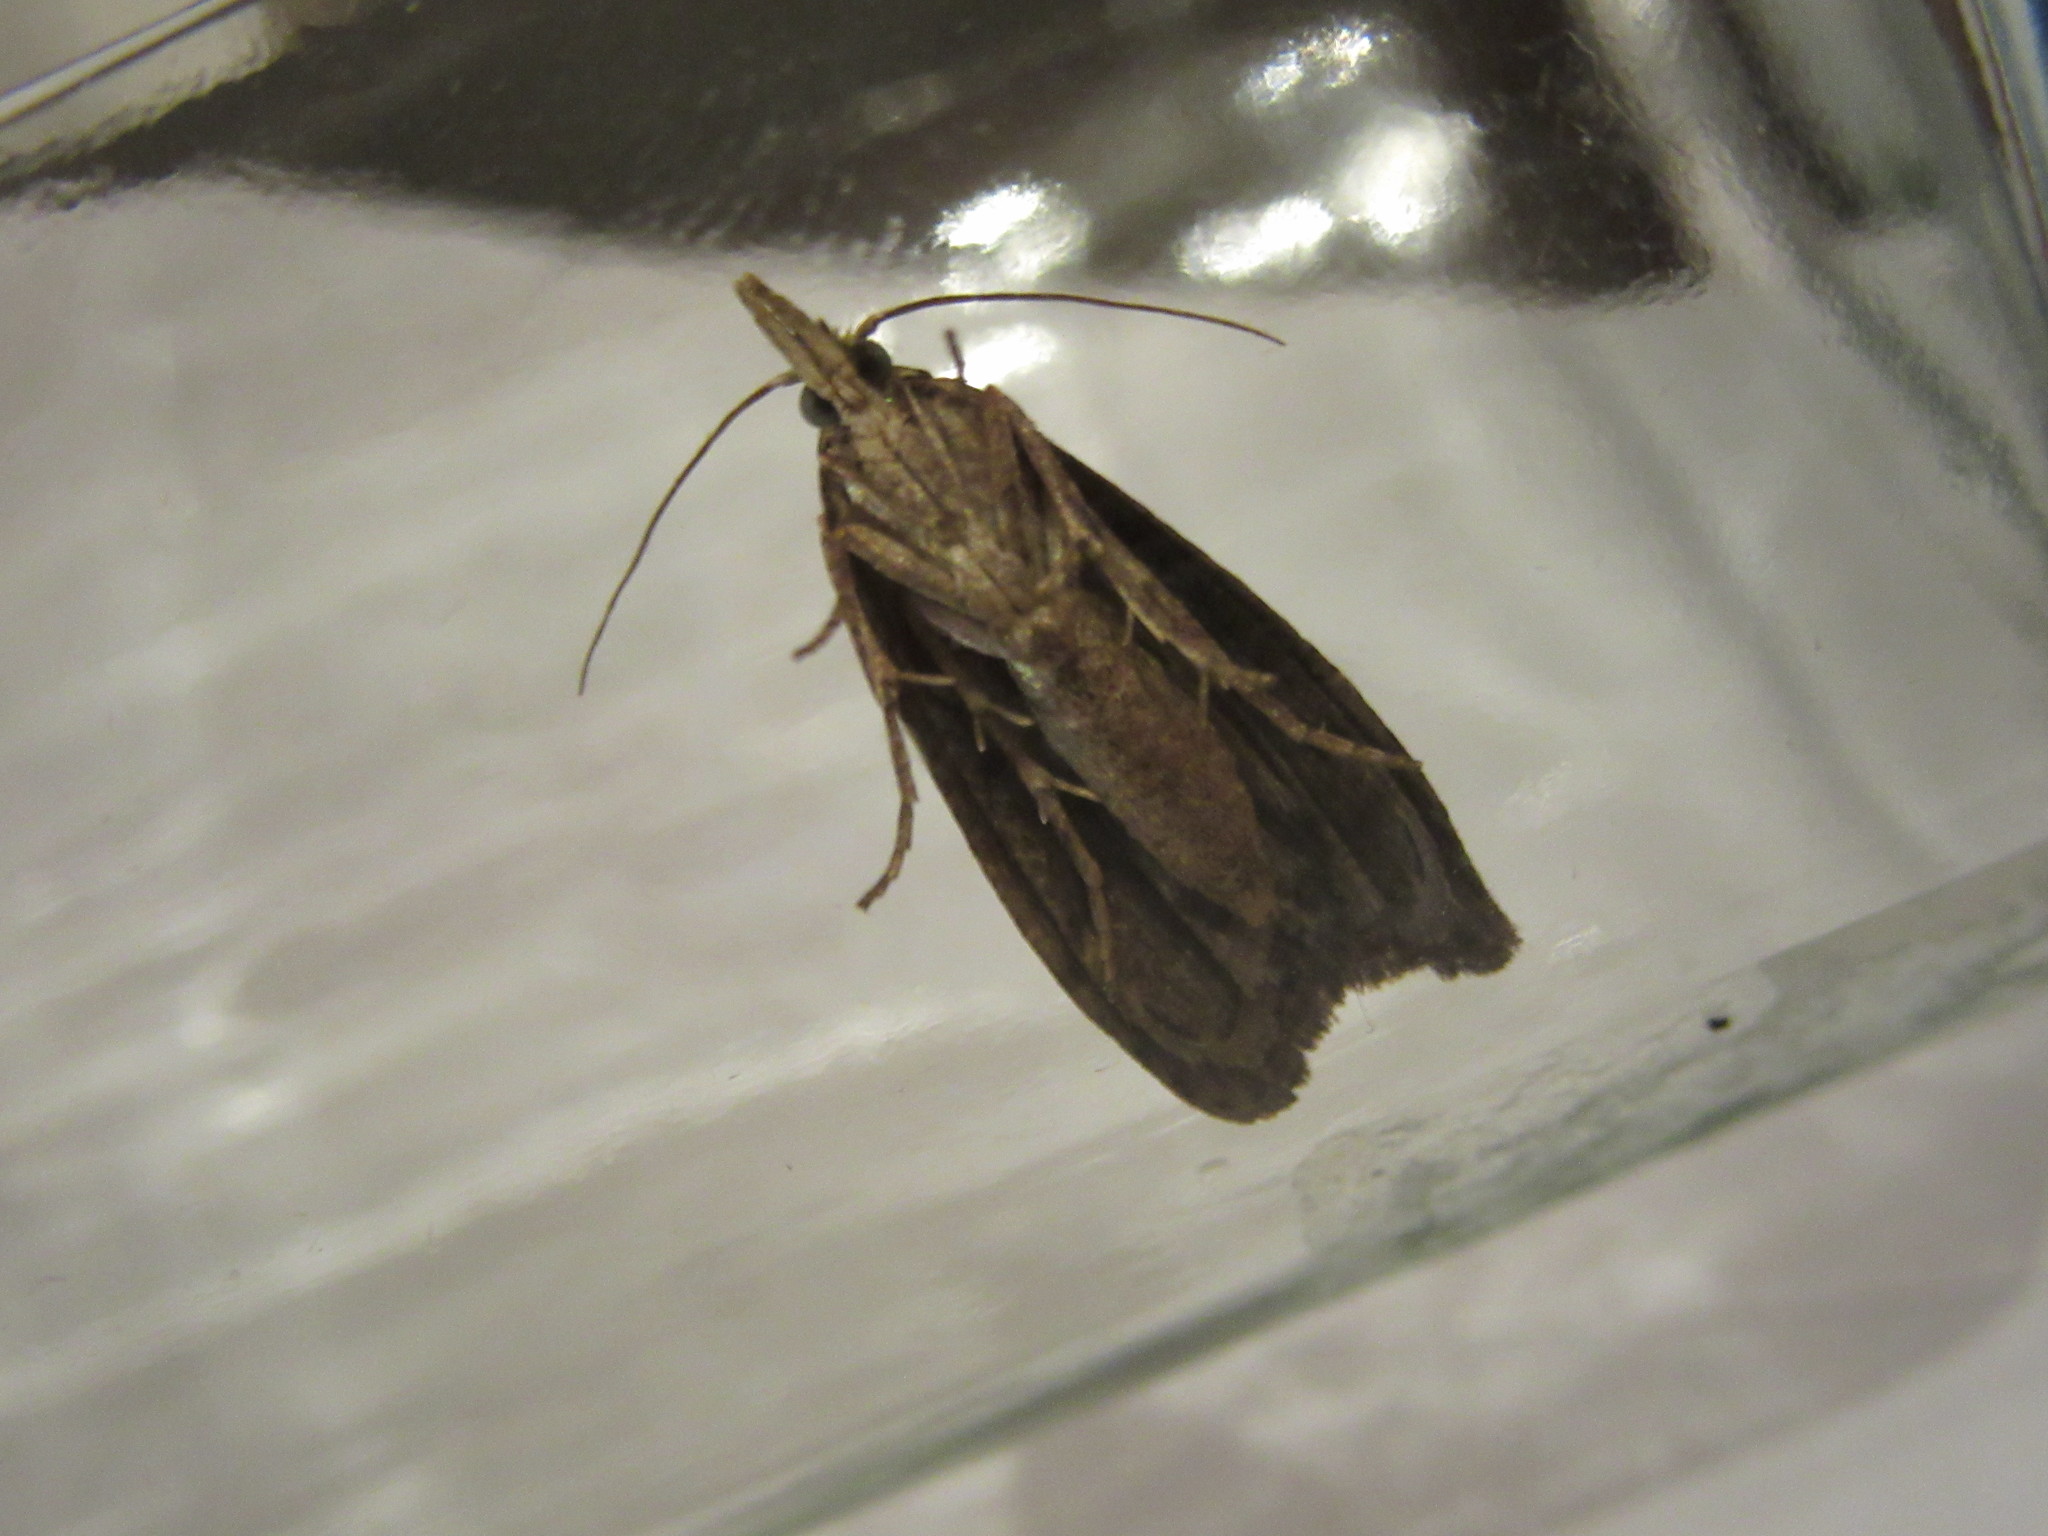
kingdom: Animalia
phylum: Arthropoda
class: Insecta
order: Lepidoptera
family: Pyralidae
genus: Aphomia
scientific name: Aphomia sociella
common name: Bee moth
